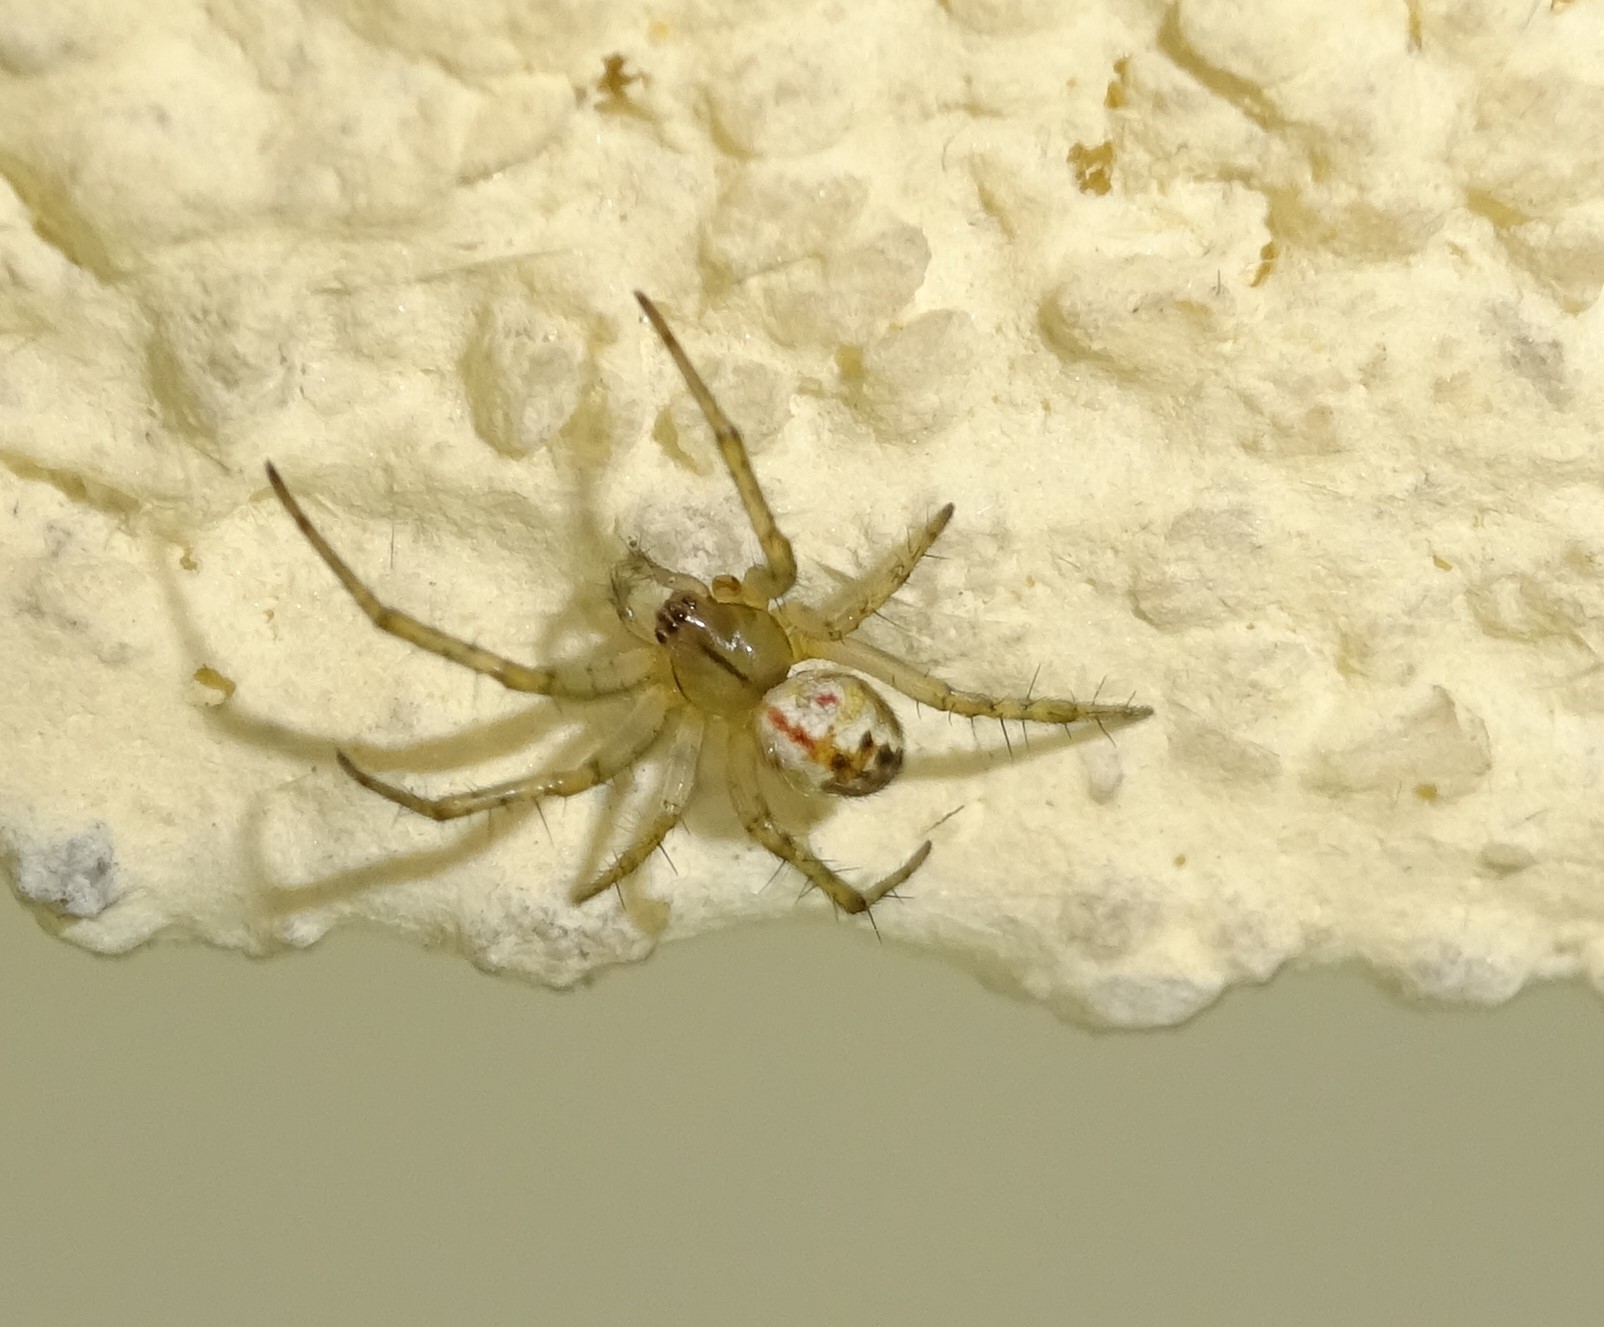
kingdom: Animalia
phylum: Arthropoda
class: Arachnida
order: Araneae
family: Araneidae
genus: Mangora
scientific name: Mangora acalypha
